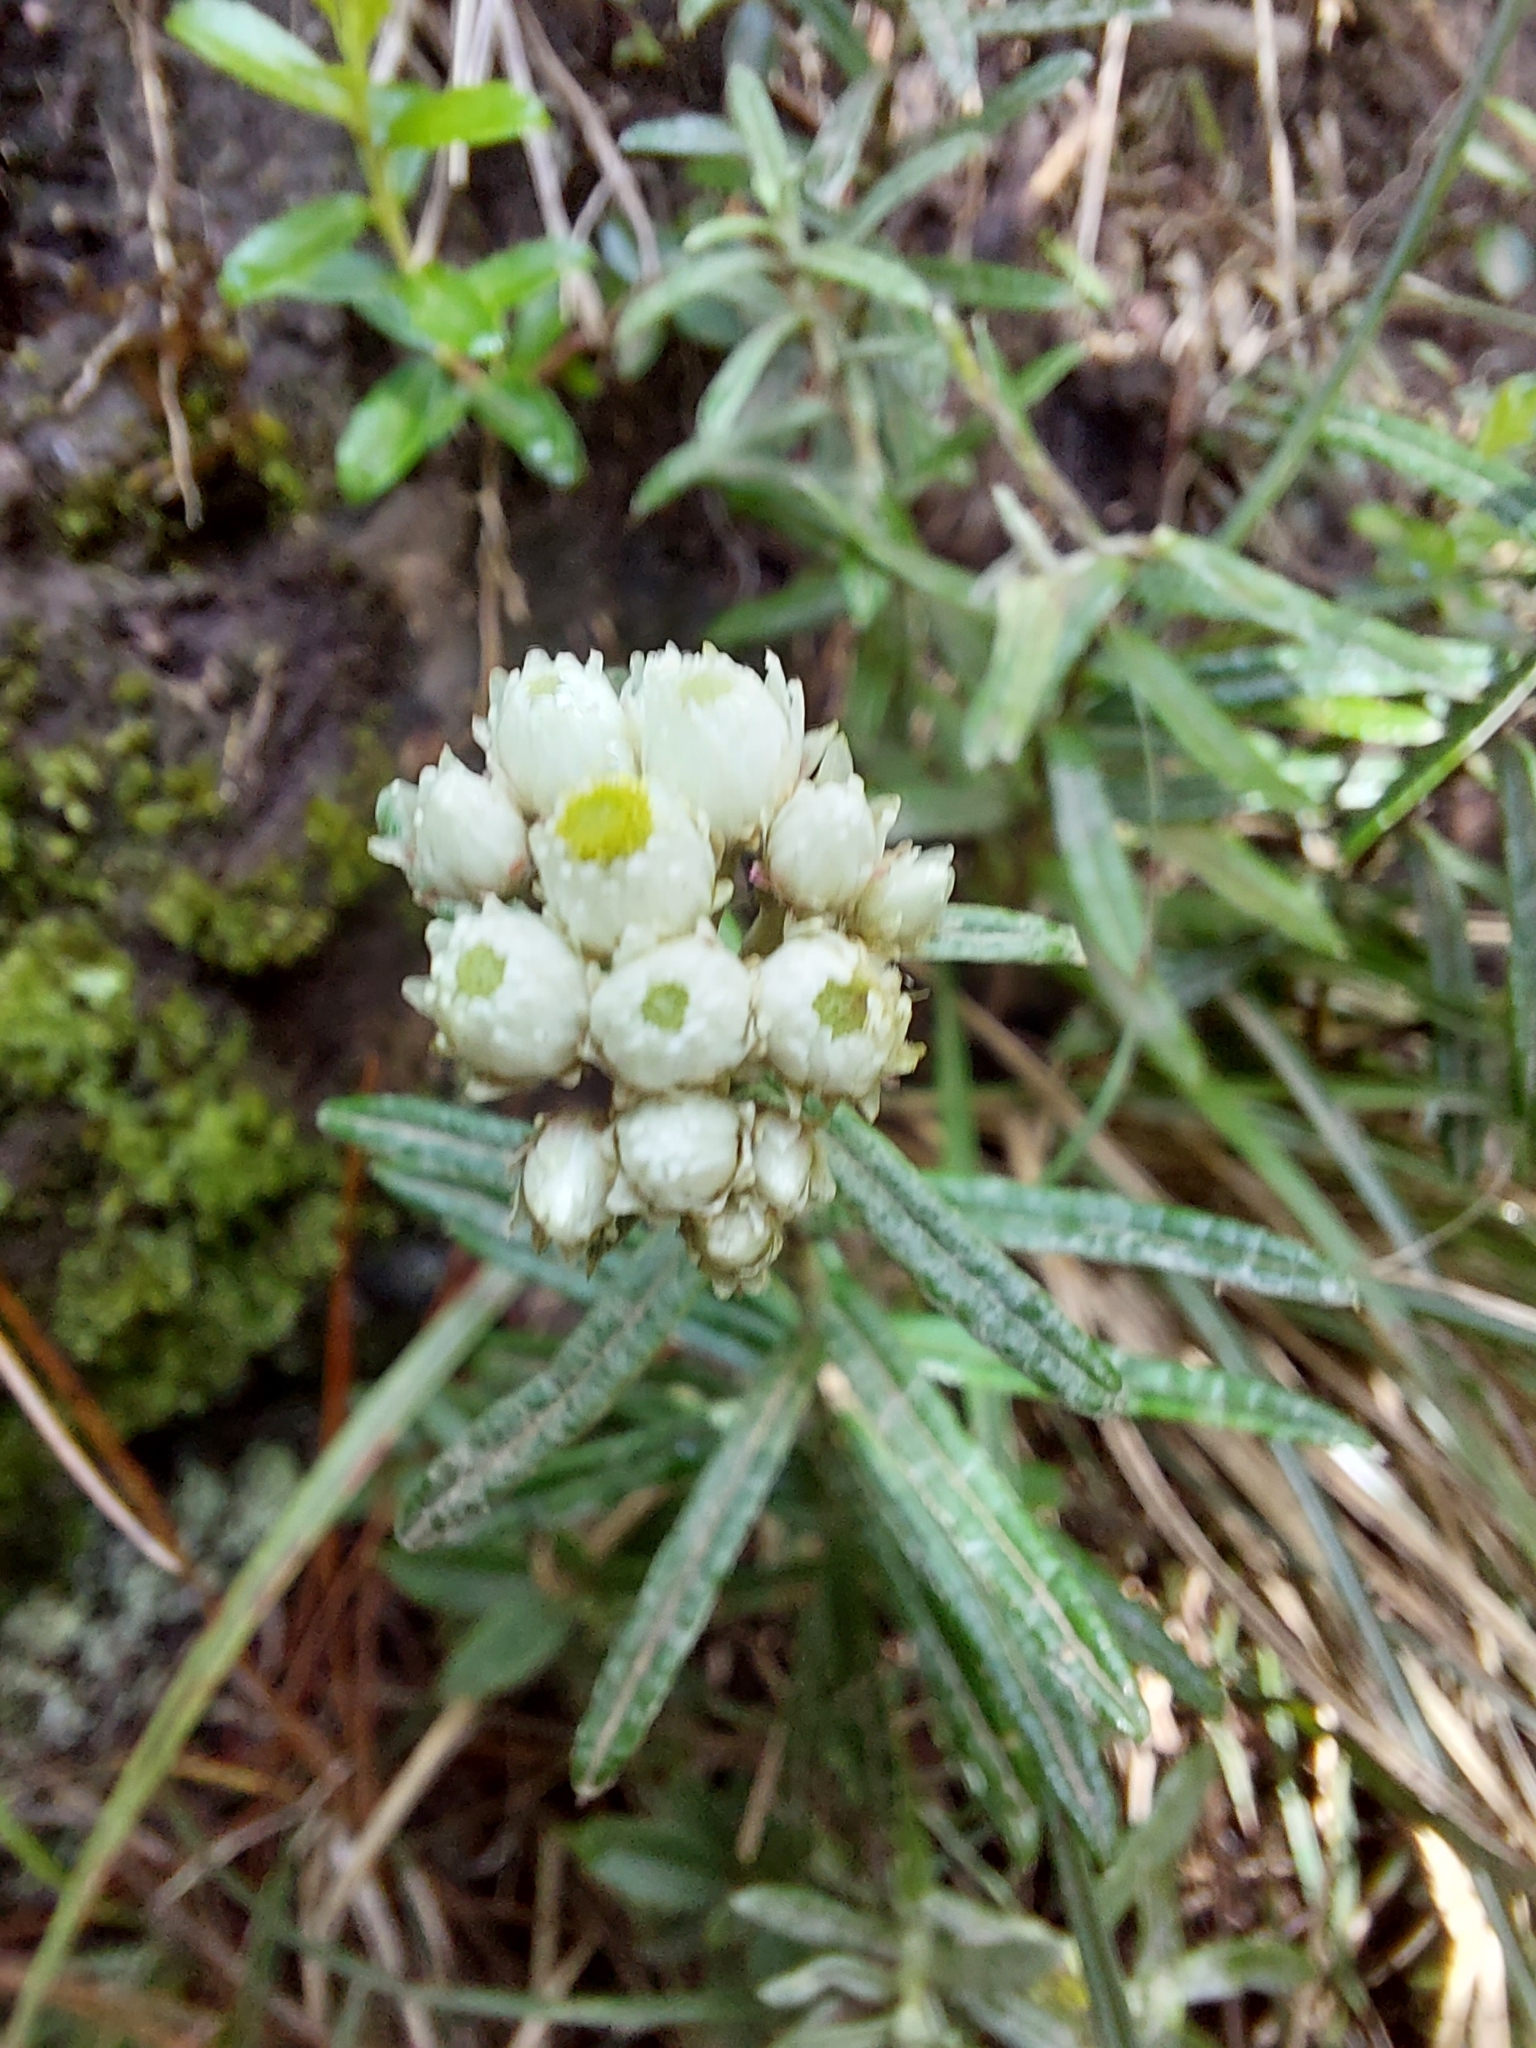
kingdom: Plantae
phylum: Tracheophyta
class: Magnoliopsida
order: Asterales
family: Asteraceae
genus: Anaphalis
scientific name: Anaphalis morrisonicola
